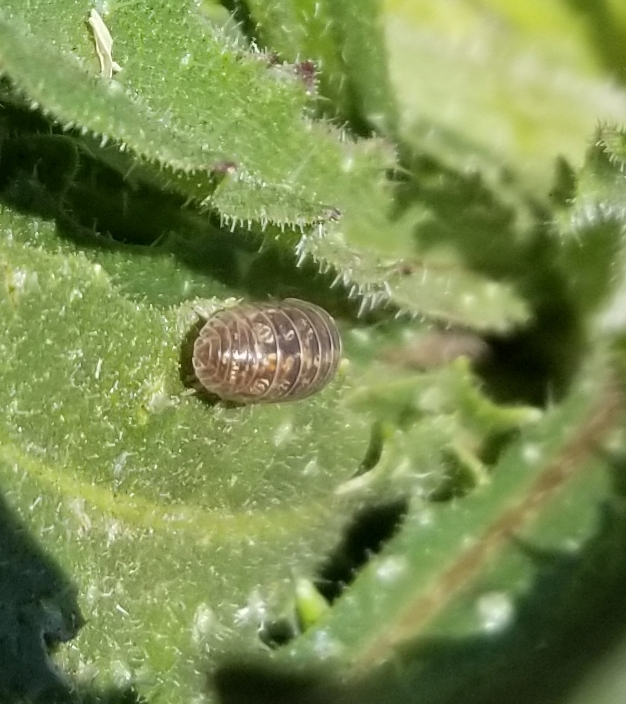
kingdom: Animalia
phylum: Arthropoda
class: Malacostraca
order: Isopoda
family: Armadillidiidae
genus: Armadillidium
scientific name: Armadillidium vulgare
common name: Common pill woodlouse
